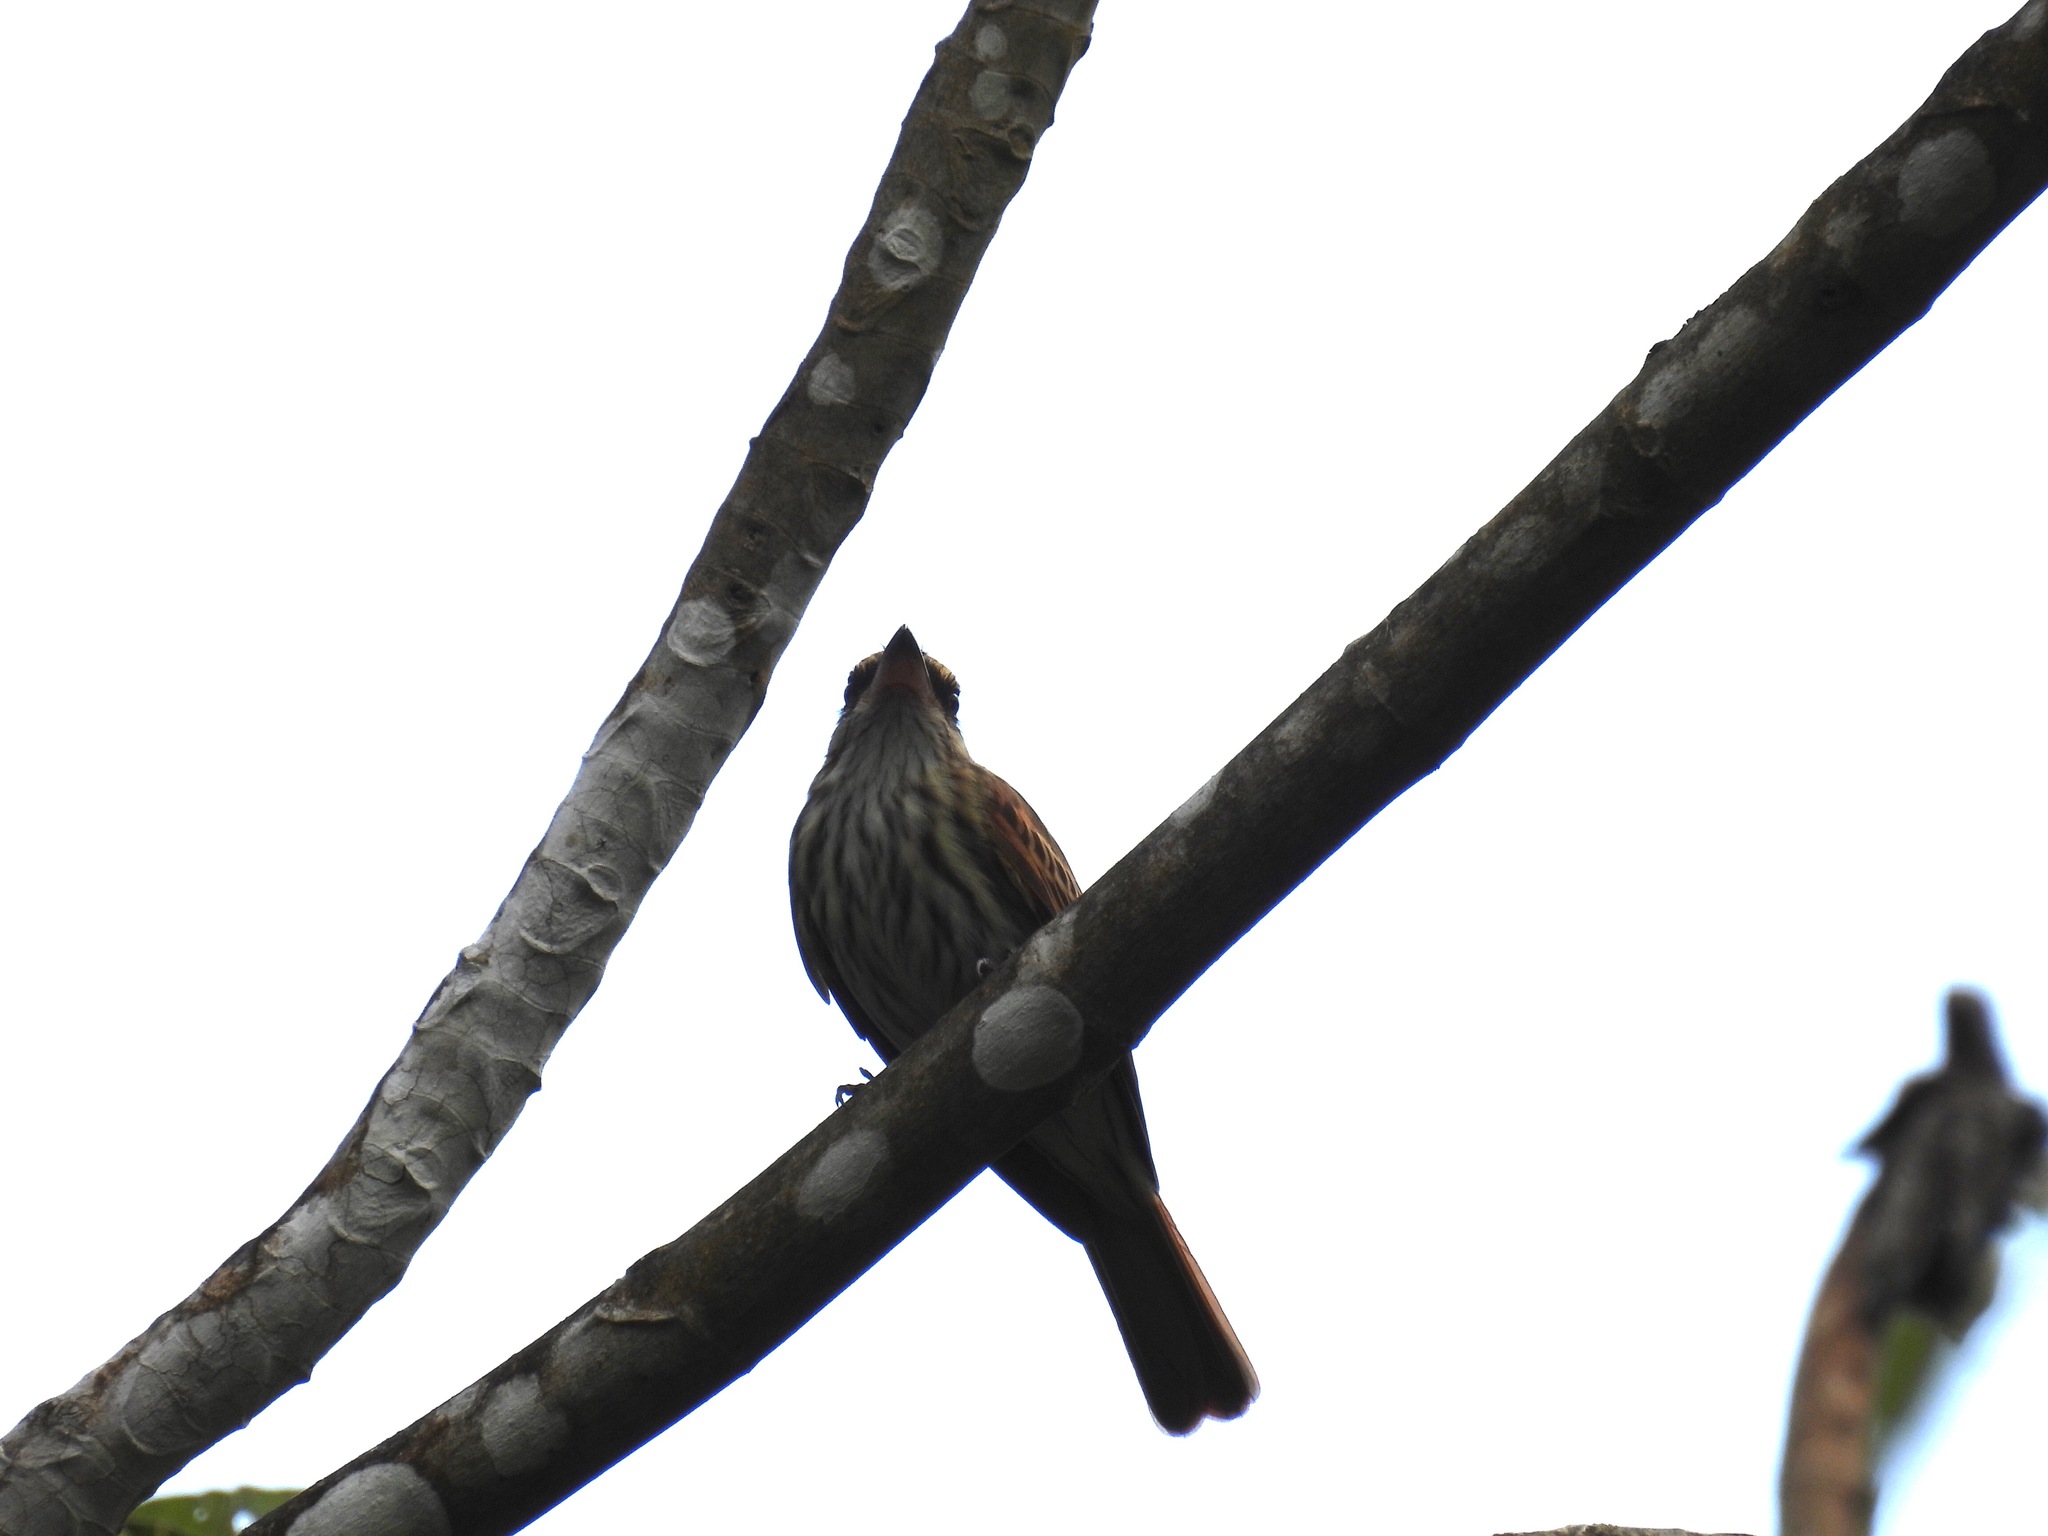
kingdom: Animalia
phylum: Chordata
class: Aves
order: Passeriformes
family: Tyrannidae
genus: Myiodynastes
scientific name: Myiodynastes maculatus
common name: Streaked flycatcher
